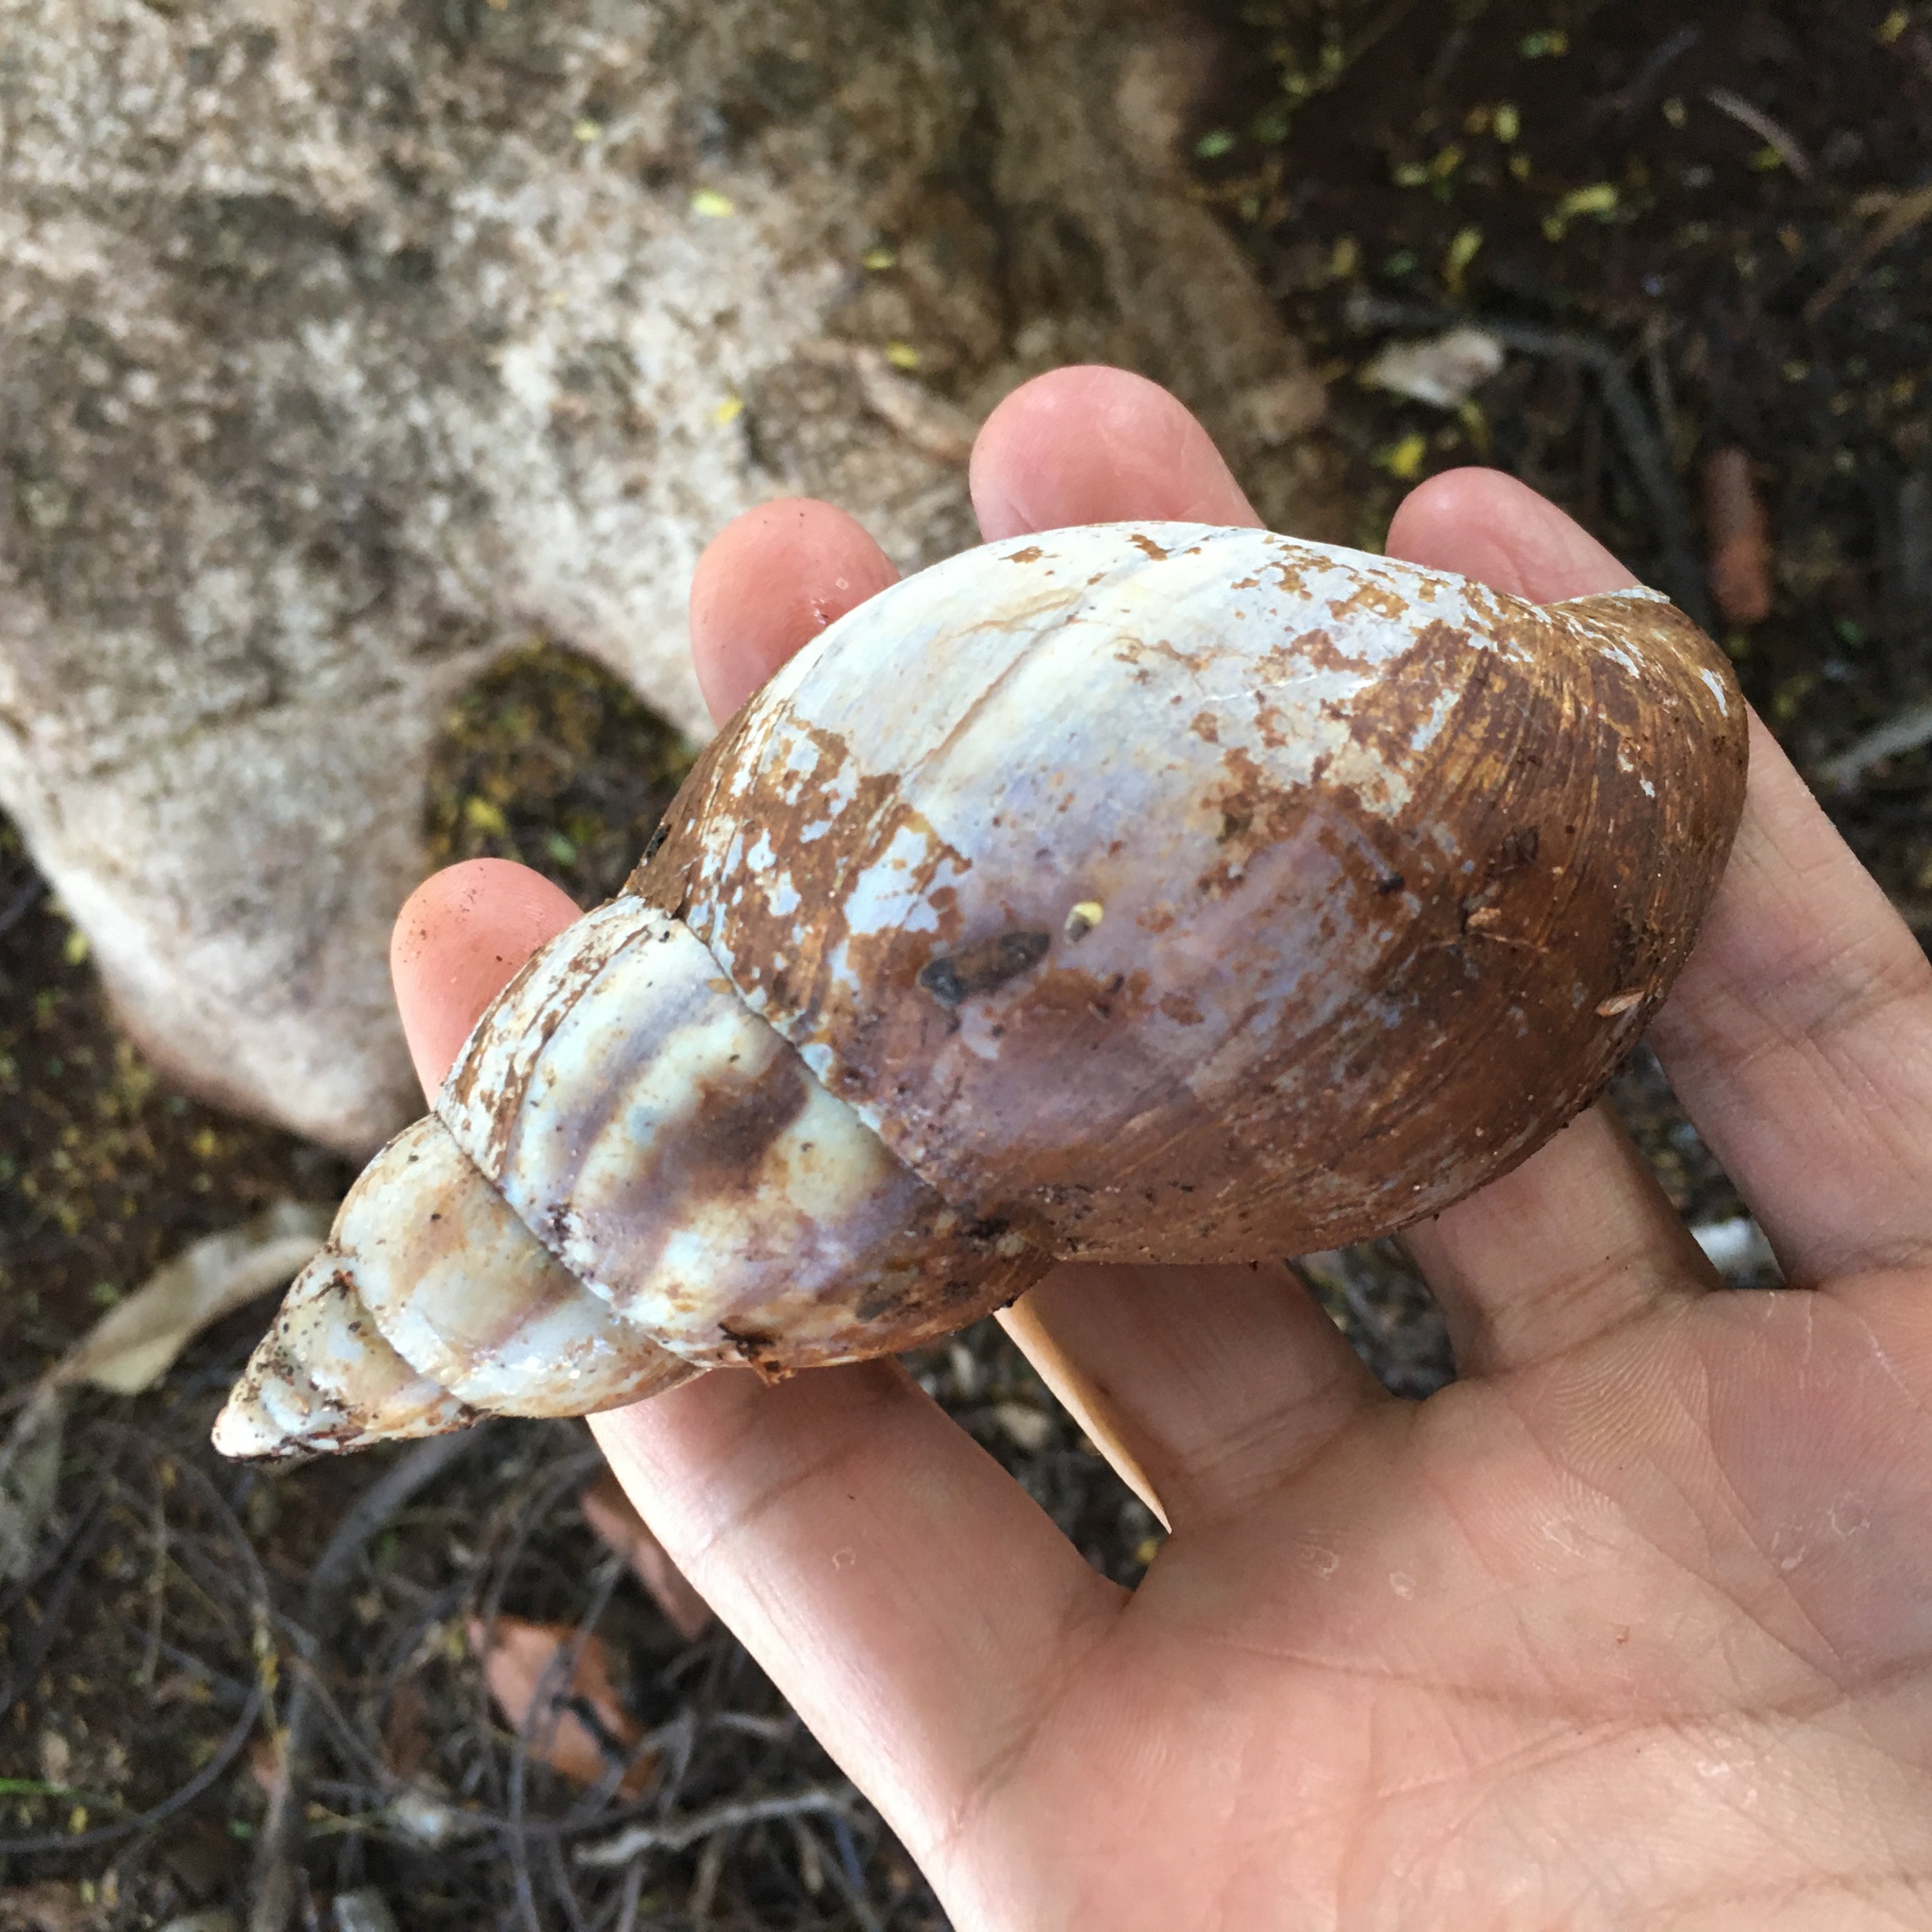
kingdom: Animalia
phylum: Mollusca
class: Gastropoda
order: Stylommatophora
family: Achatinidae
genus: Lissachatina
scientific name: Lissachatina fulica
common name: Giant african snail
